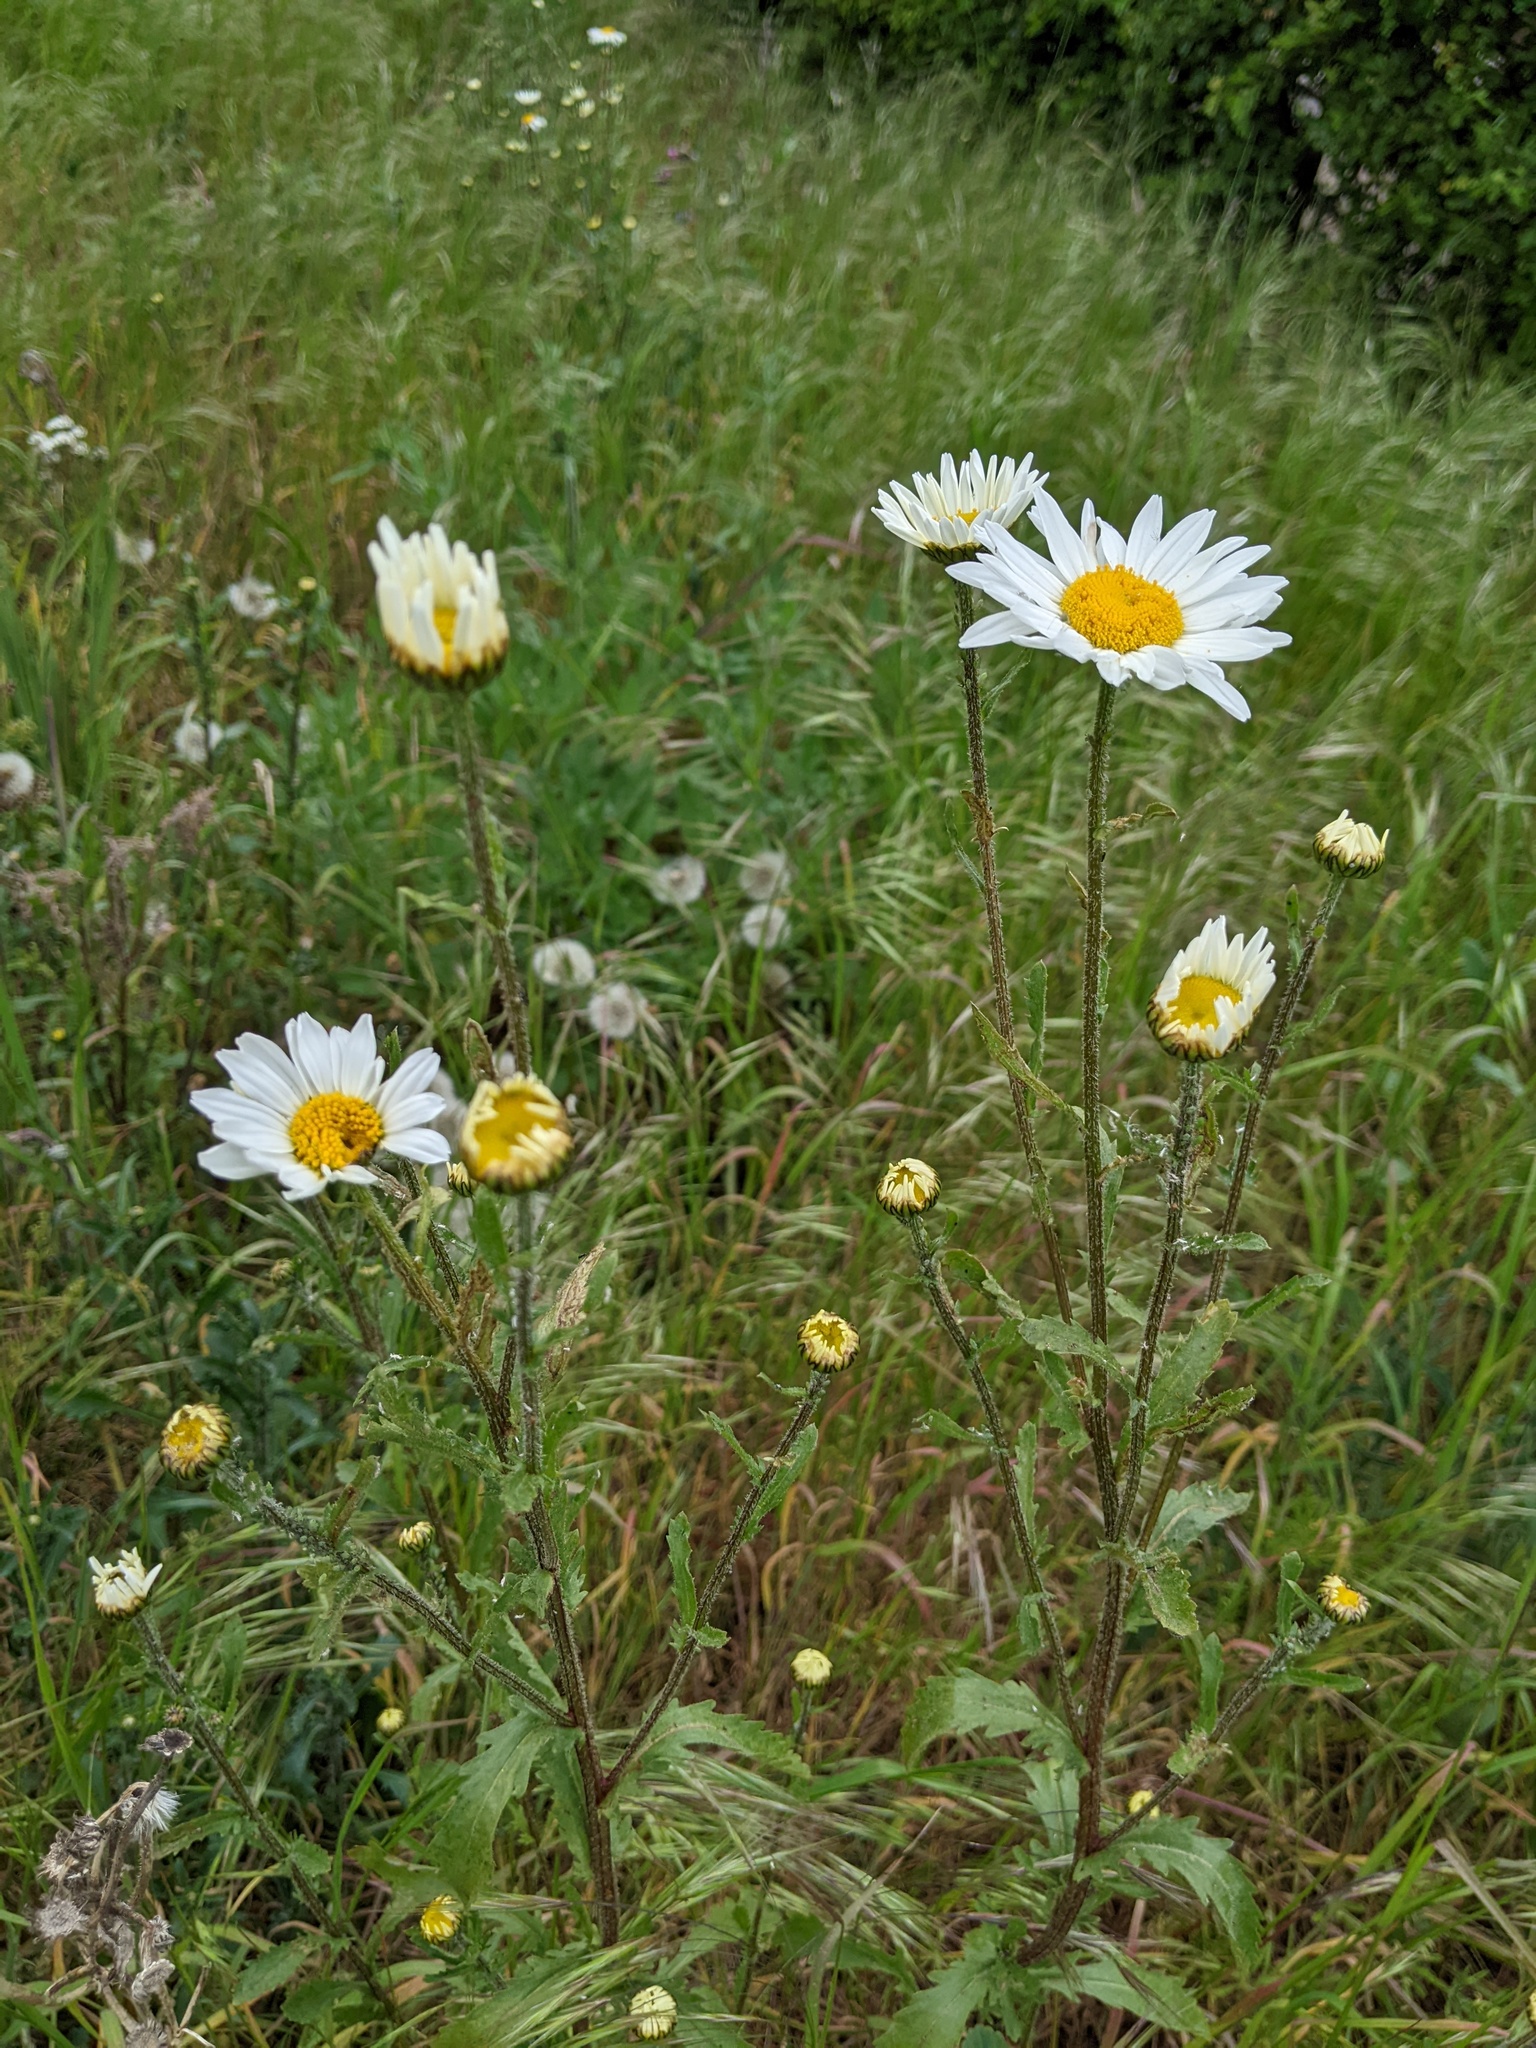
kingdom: Plantae
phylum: Tracheophyta
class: Magnoliopsida
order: Asterales
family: Asteraceae
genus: Leucanthemum
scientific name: Leucanthemum vulgare
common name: Oxeye daisy
